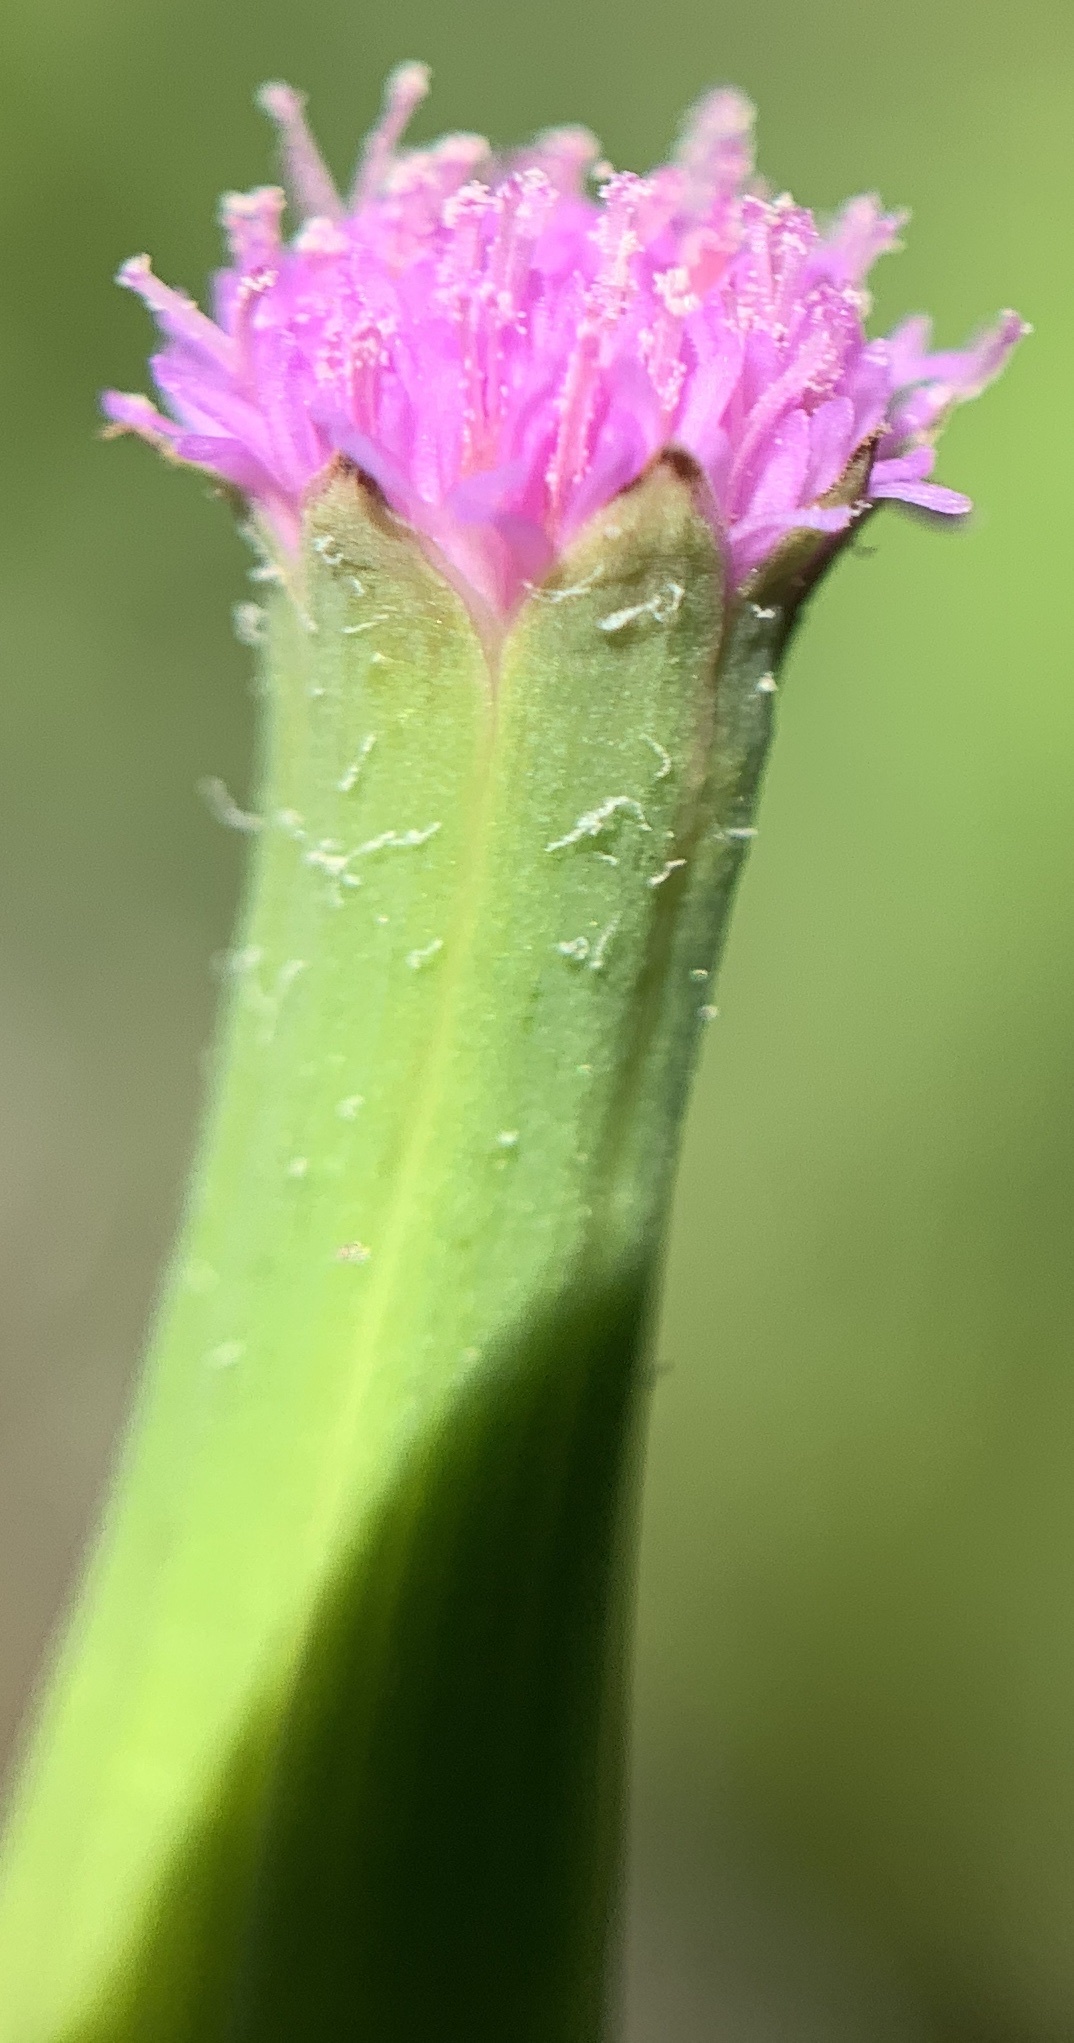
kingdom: Plantae
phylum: Tracheophyta
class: Magnoliopsida
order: Asterales
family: Asteraceae
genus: Emilia
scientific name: Emilia sonchifolia
